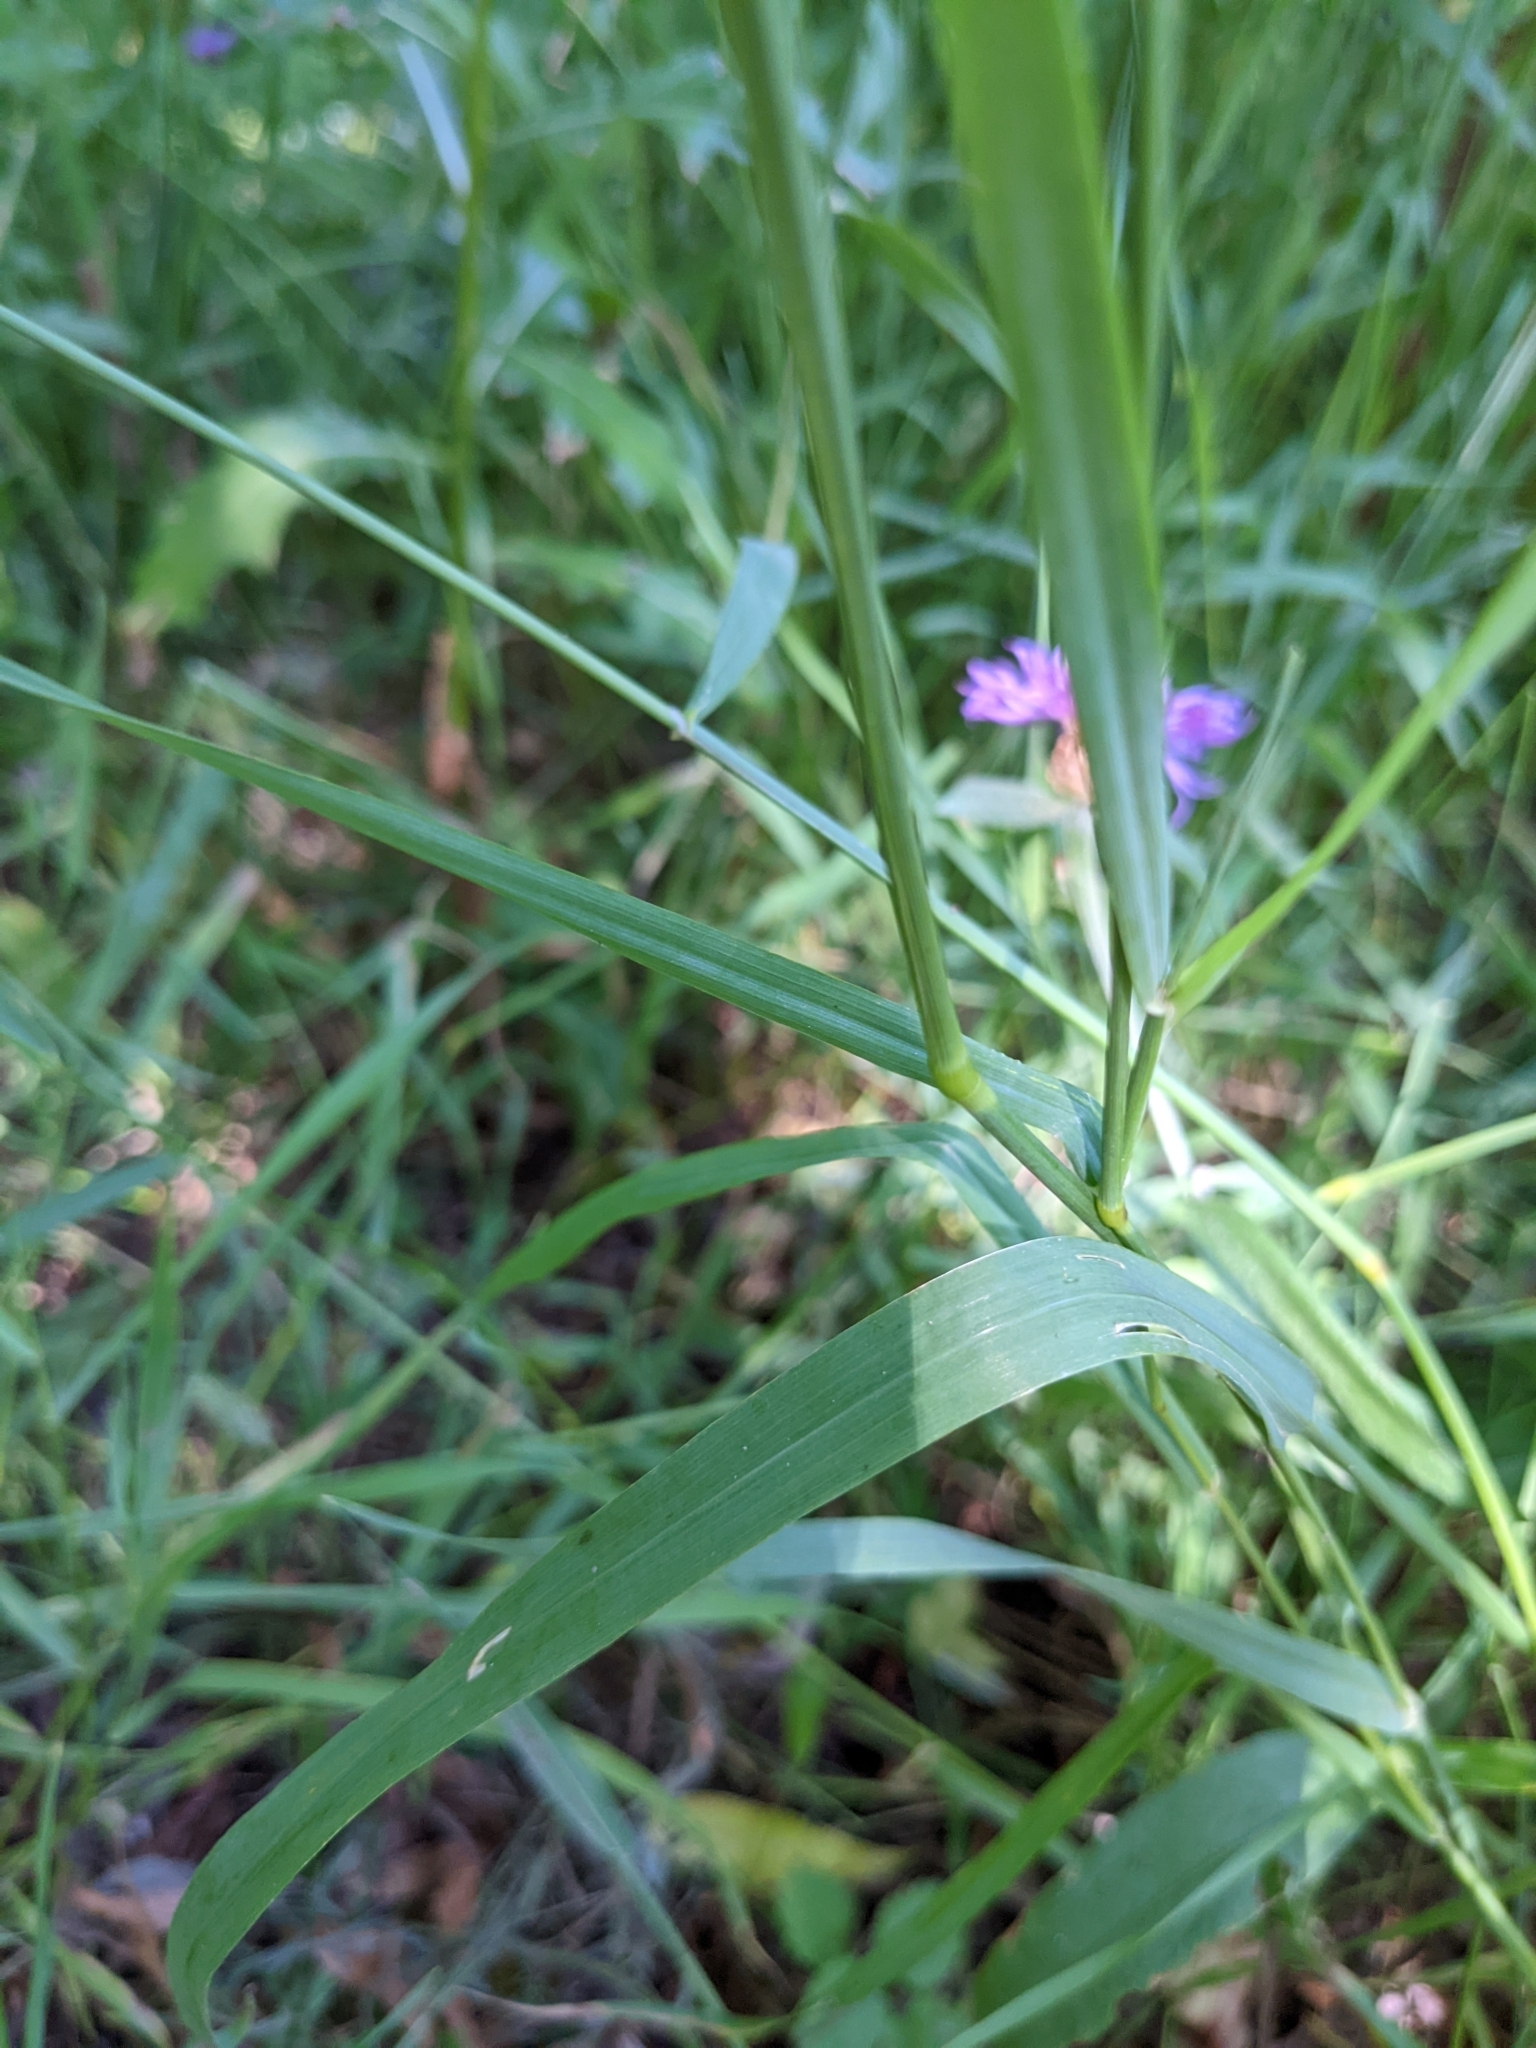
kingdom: Plantae
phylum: Tracheophyta
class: Liliopsida
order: Poales
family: Poaceae
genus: Phleum
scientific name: Phleum pratense
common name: Timothy grass
